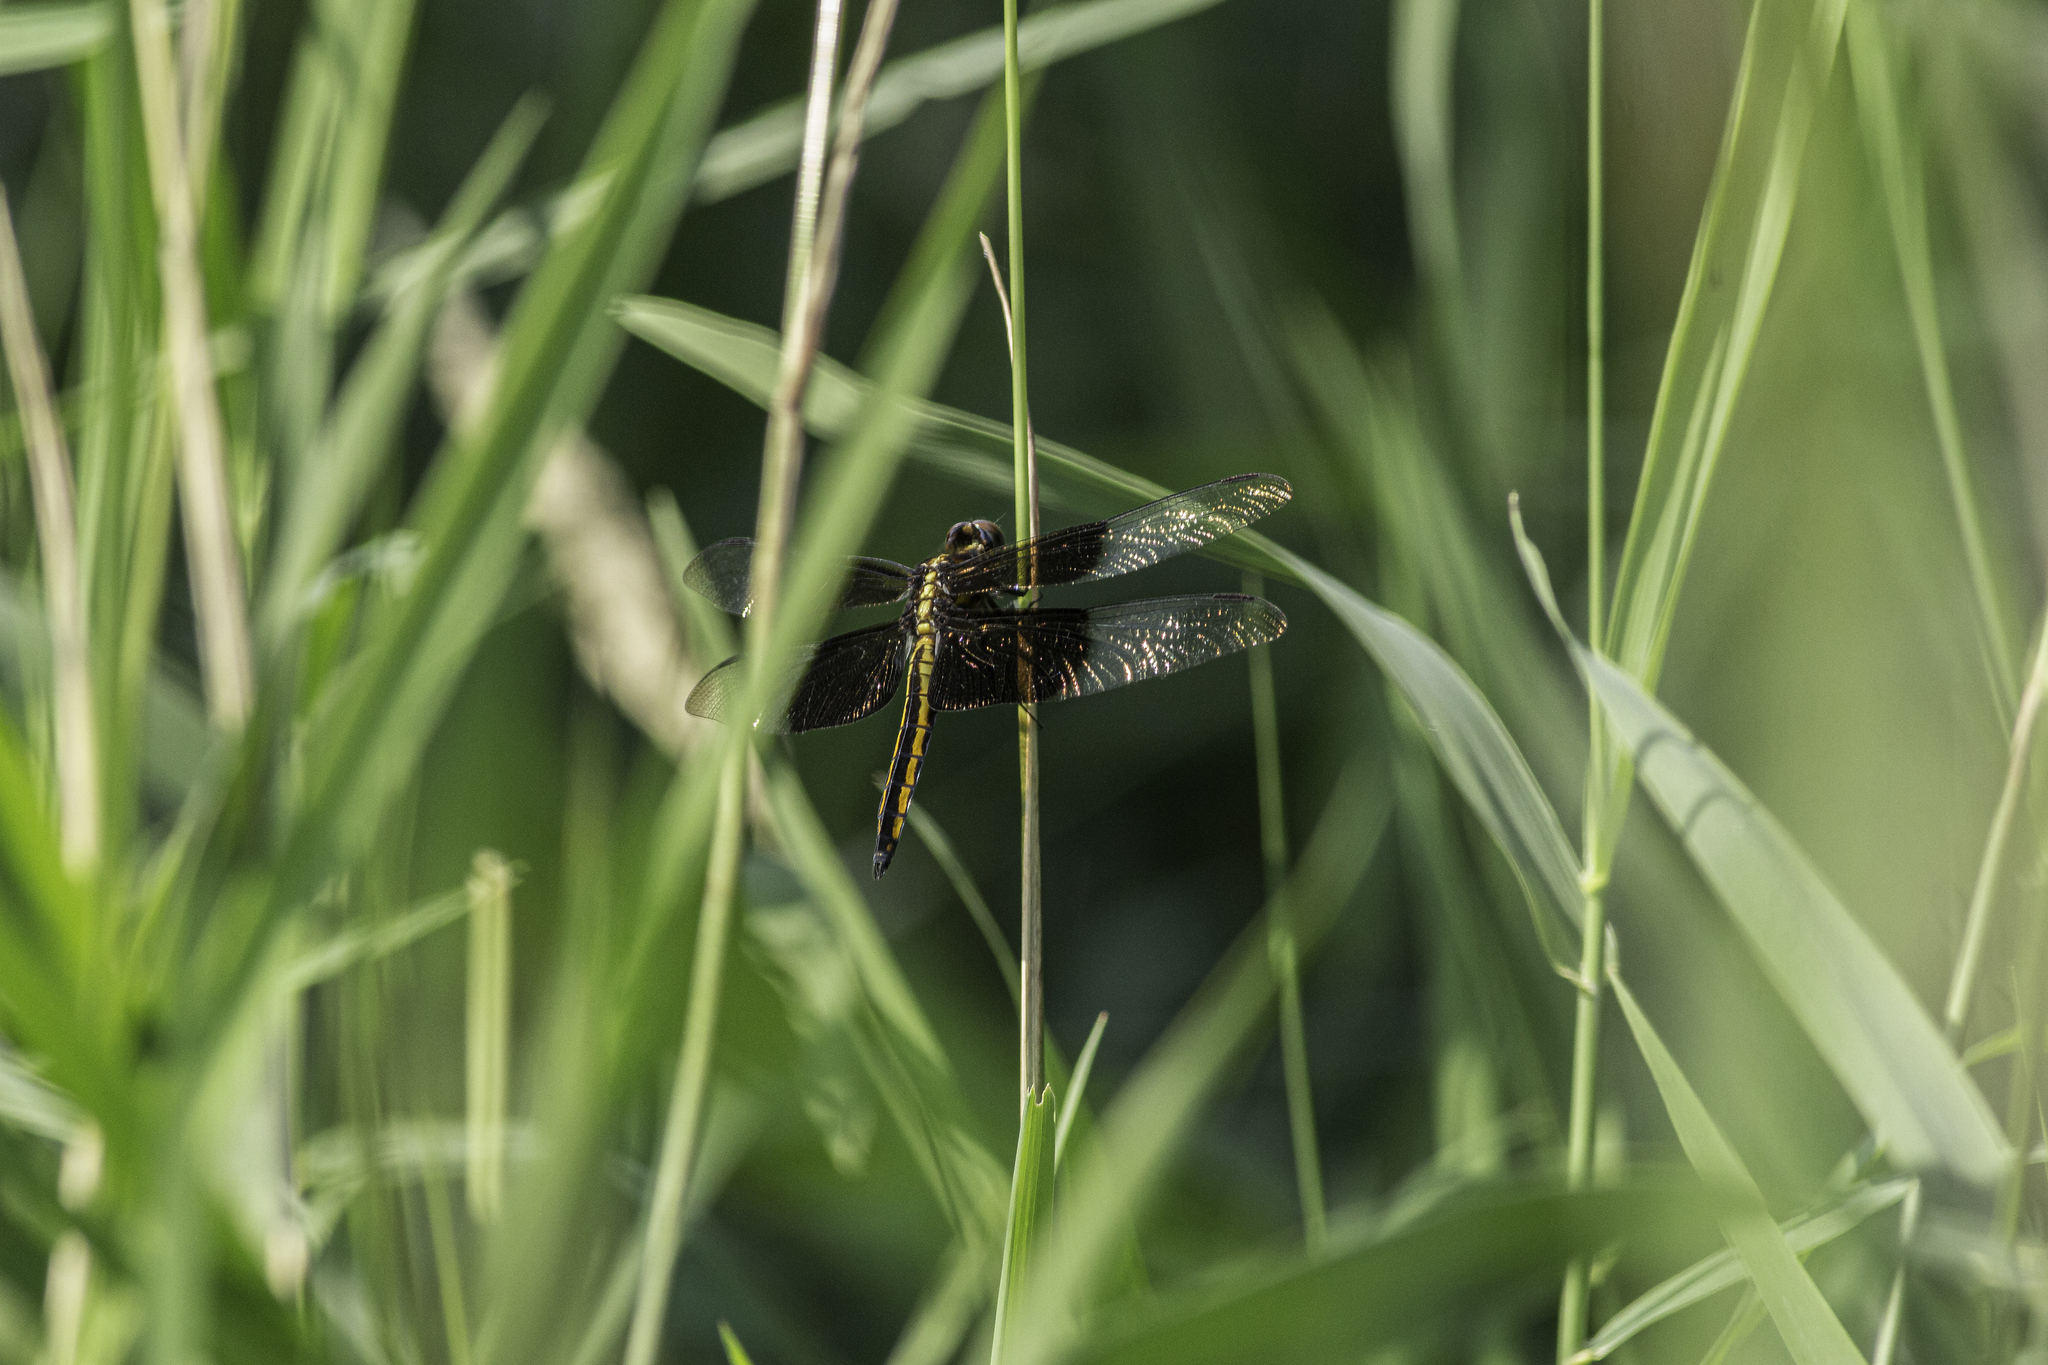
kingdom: Animalia
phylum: Arthropoda
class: Insecta
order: Odonata
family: Libellulidae
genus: Libellula
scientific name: Libellula luctuosa
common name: Widow skimmer
